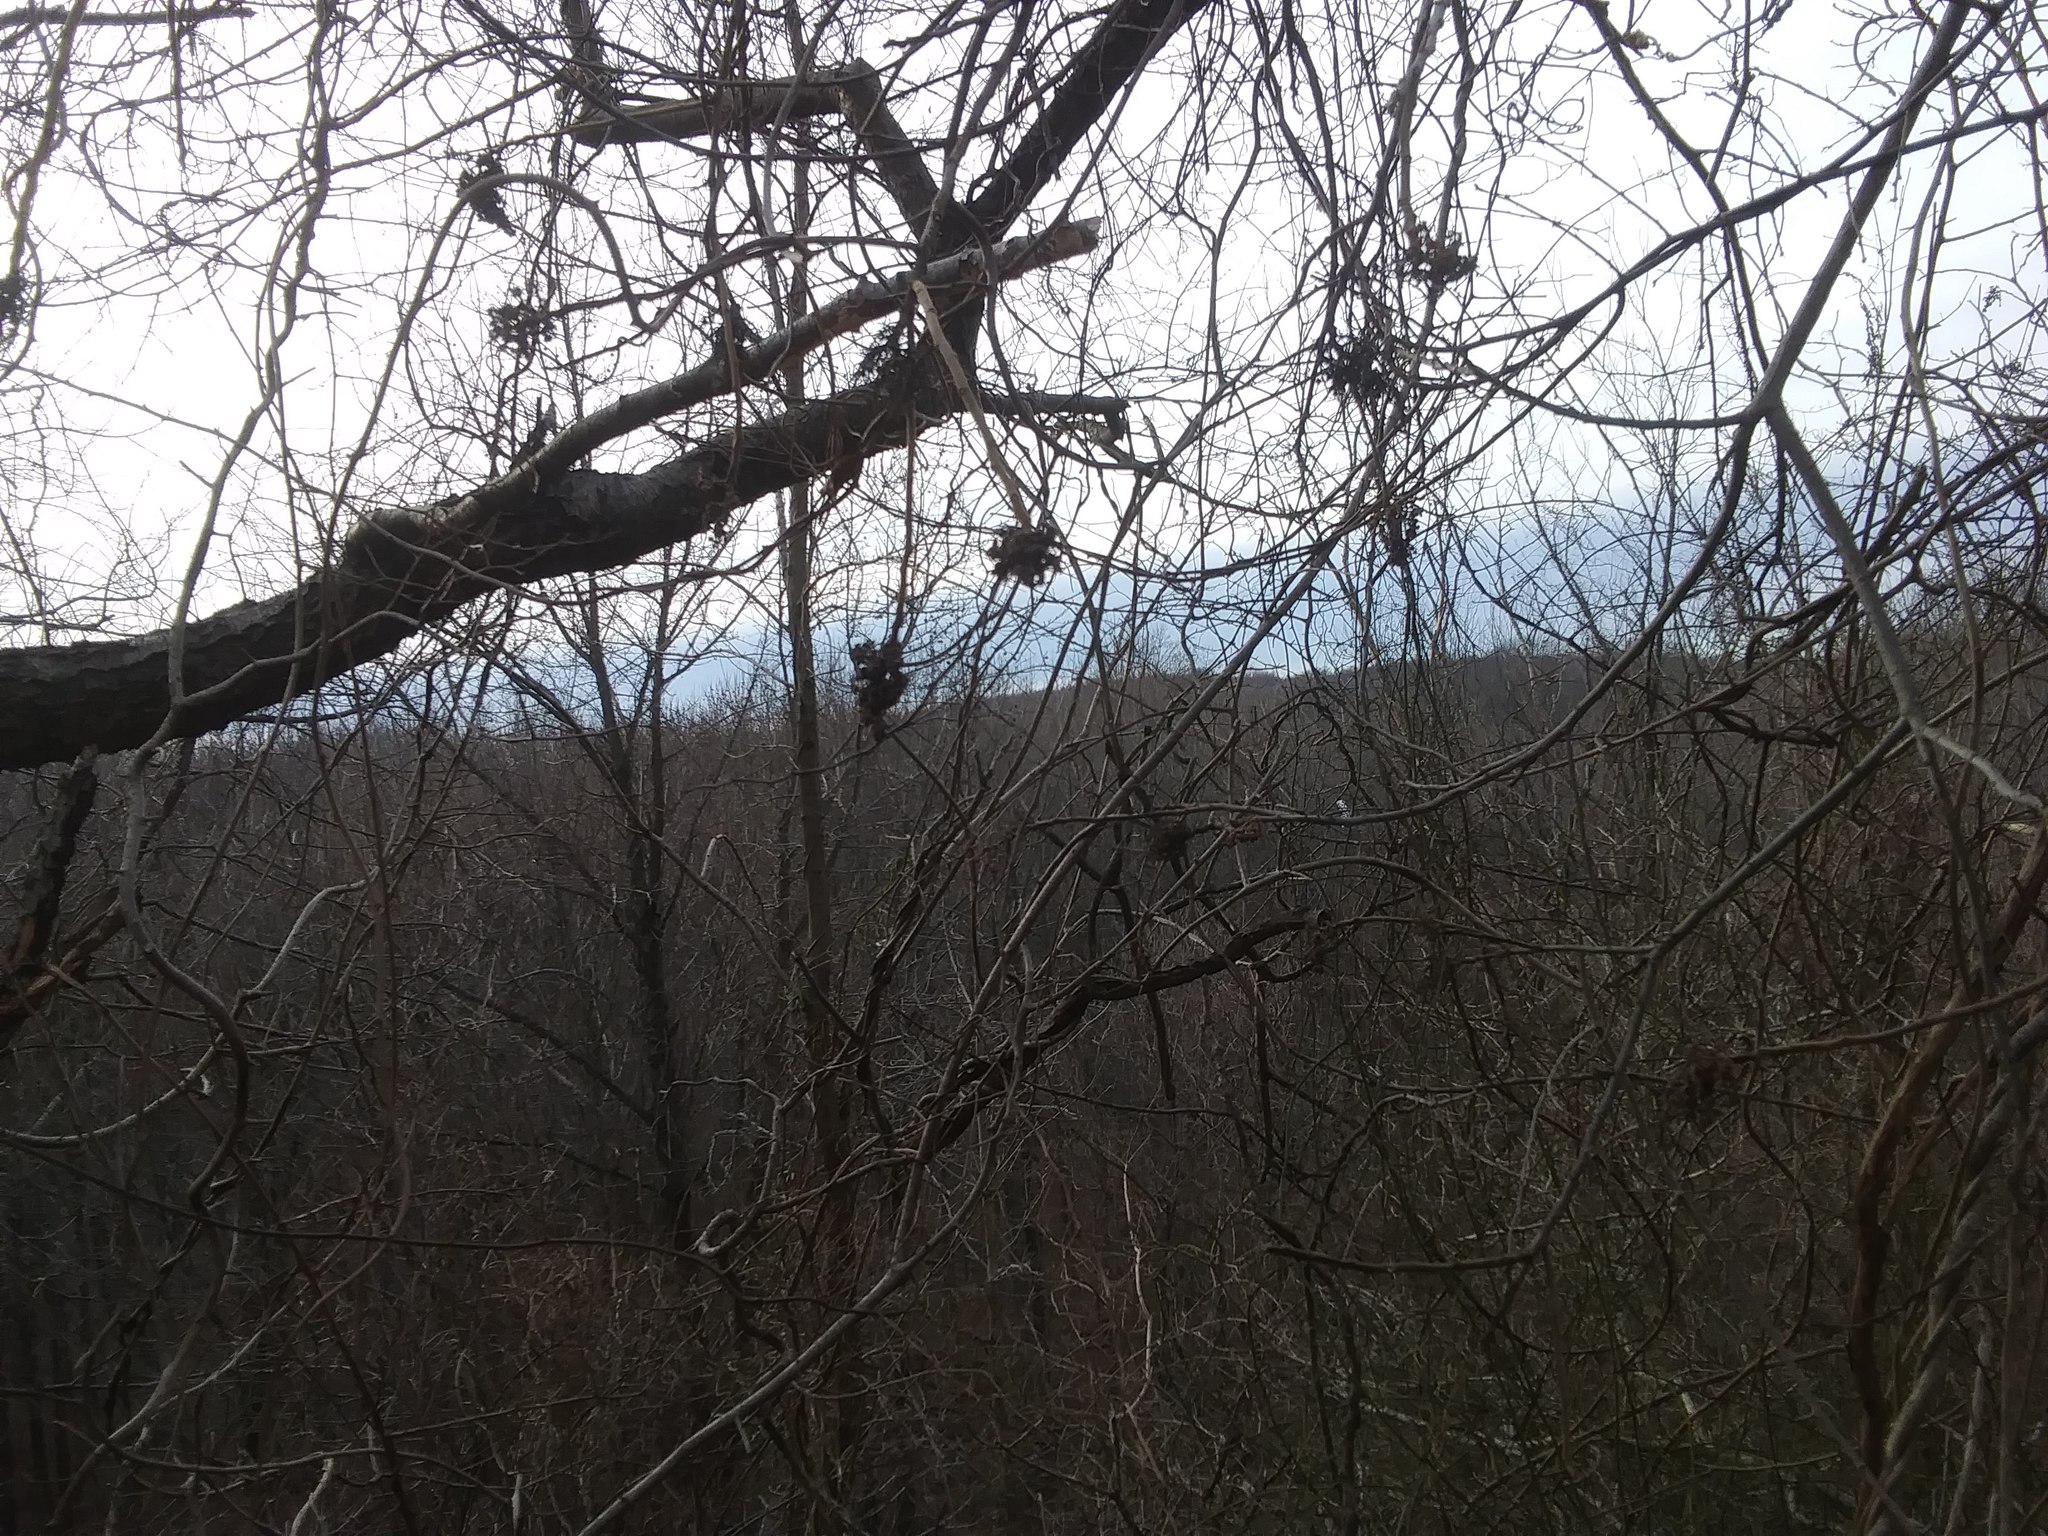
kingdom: Plantae
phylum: Tracheophyta
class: Magnoliopsida
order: Sapindales
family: Anacardiaceae
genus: Rhus
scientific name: Rhus typhina
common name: Staghorn sumac
